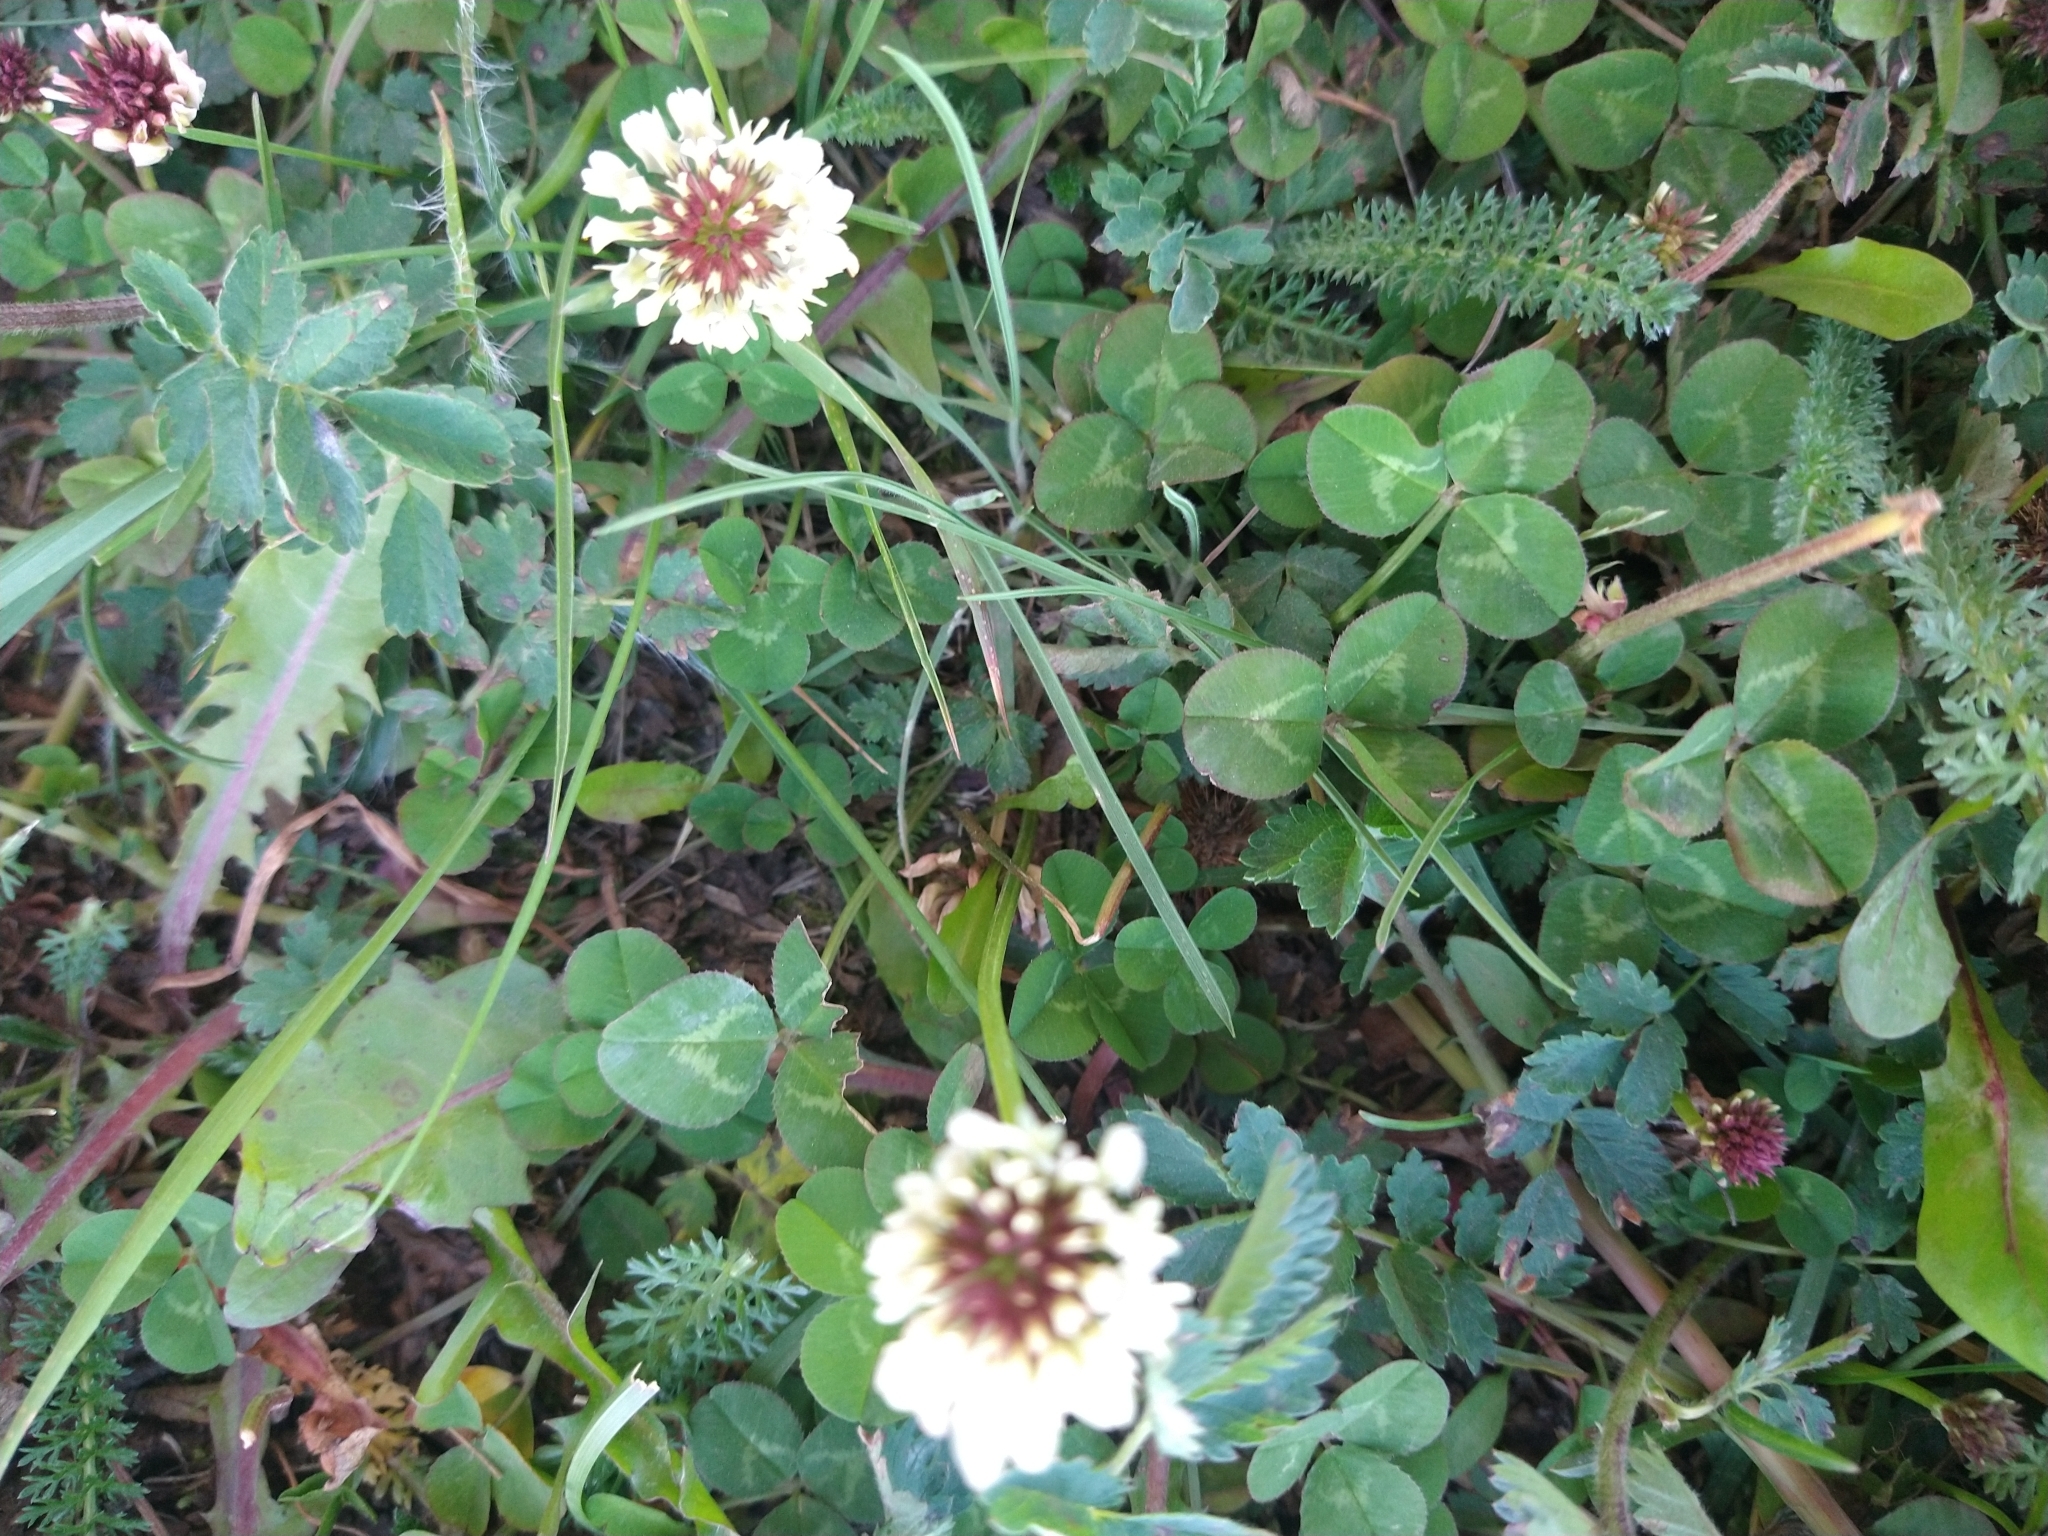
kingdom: Plantae
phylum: Tracheophyta
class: Magnoliopsida
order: Fabales
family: Fabaceae
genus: Trifolium
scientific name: Trifolium repens
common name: White clover
